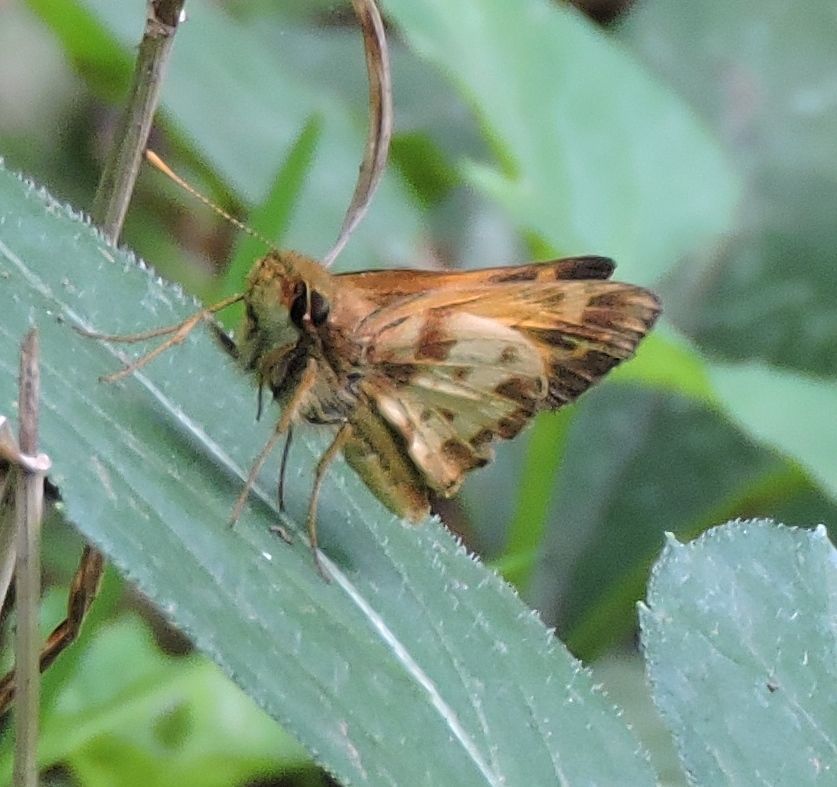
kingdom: Animalia
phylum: Arthropoda
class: Insecta
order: Lepidoptera
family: Hesperiidae
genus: Lon
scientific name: Lon zabulon
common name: Zabulon skipper
